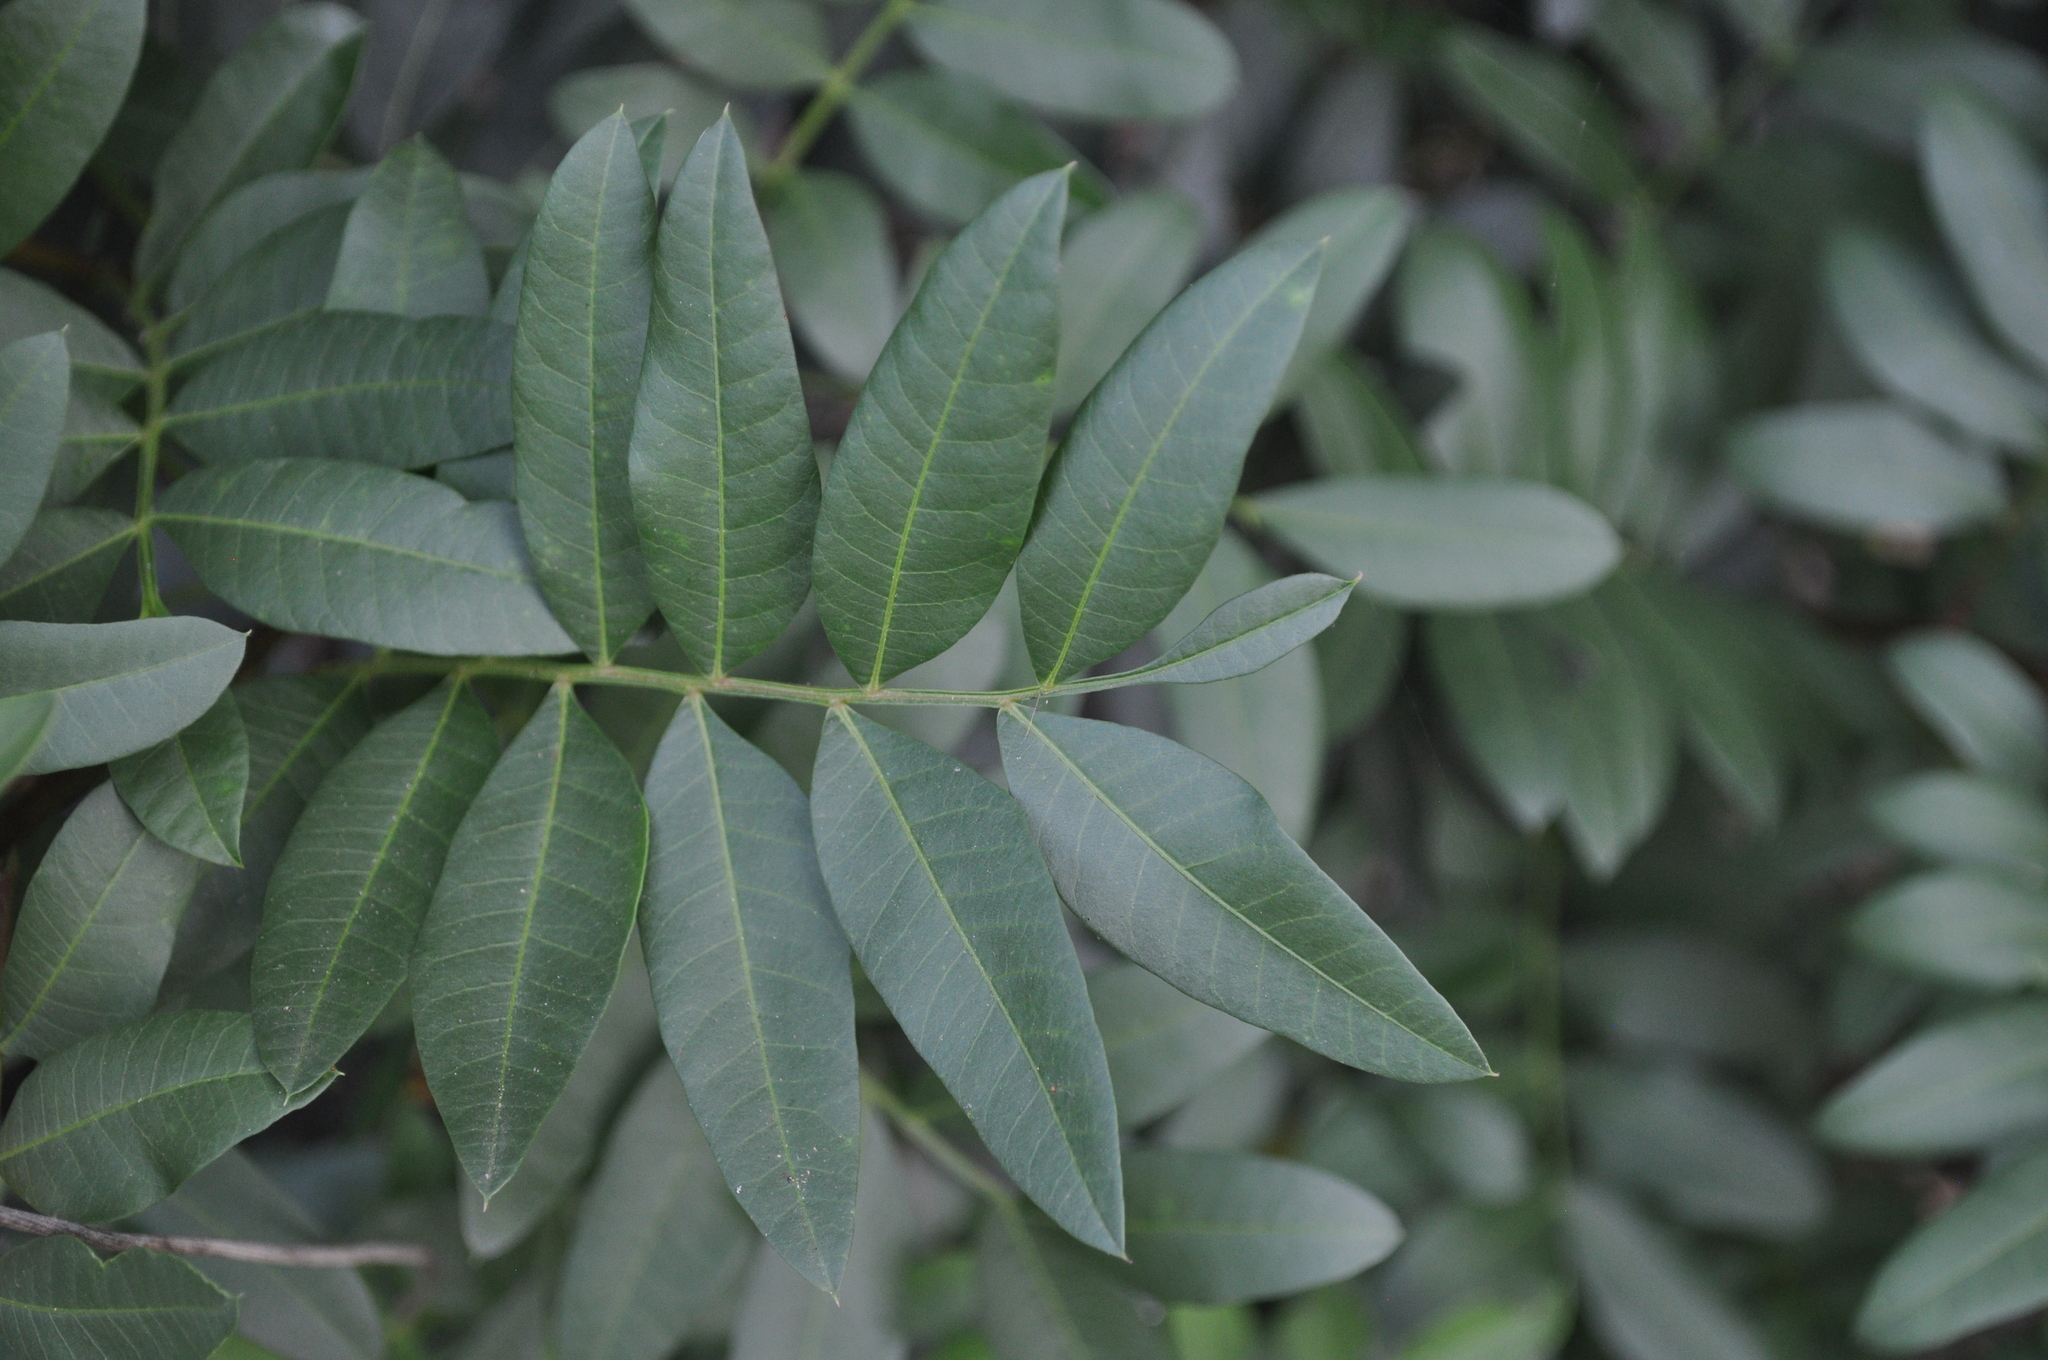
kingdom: Plantae
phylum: Tracheophyta
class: Magnoliopsida
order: Sapindales
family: Anacardiaceae
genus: Pistacia
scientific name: Pistacia saportae
